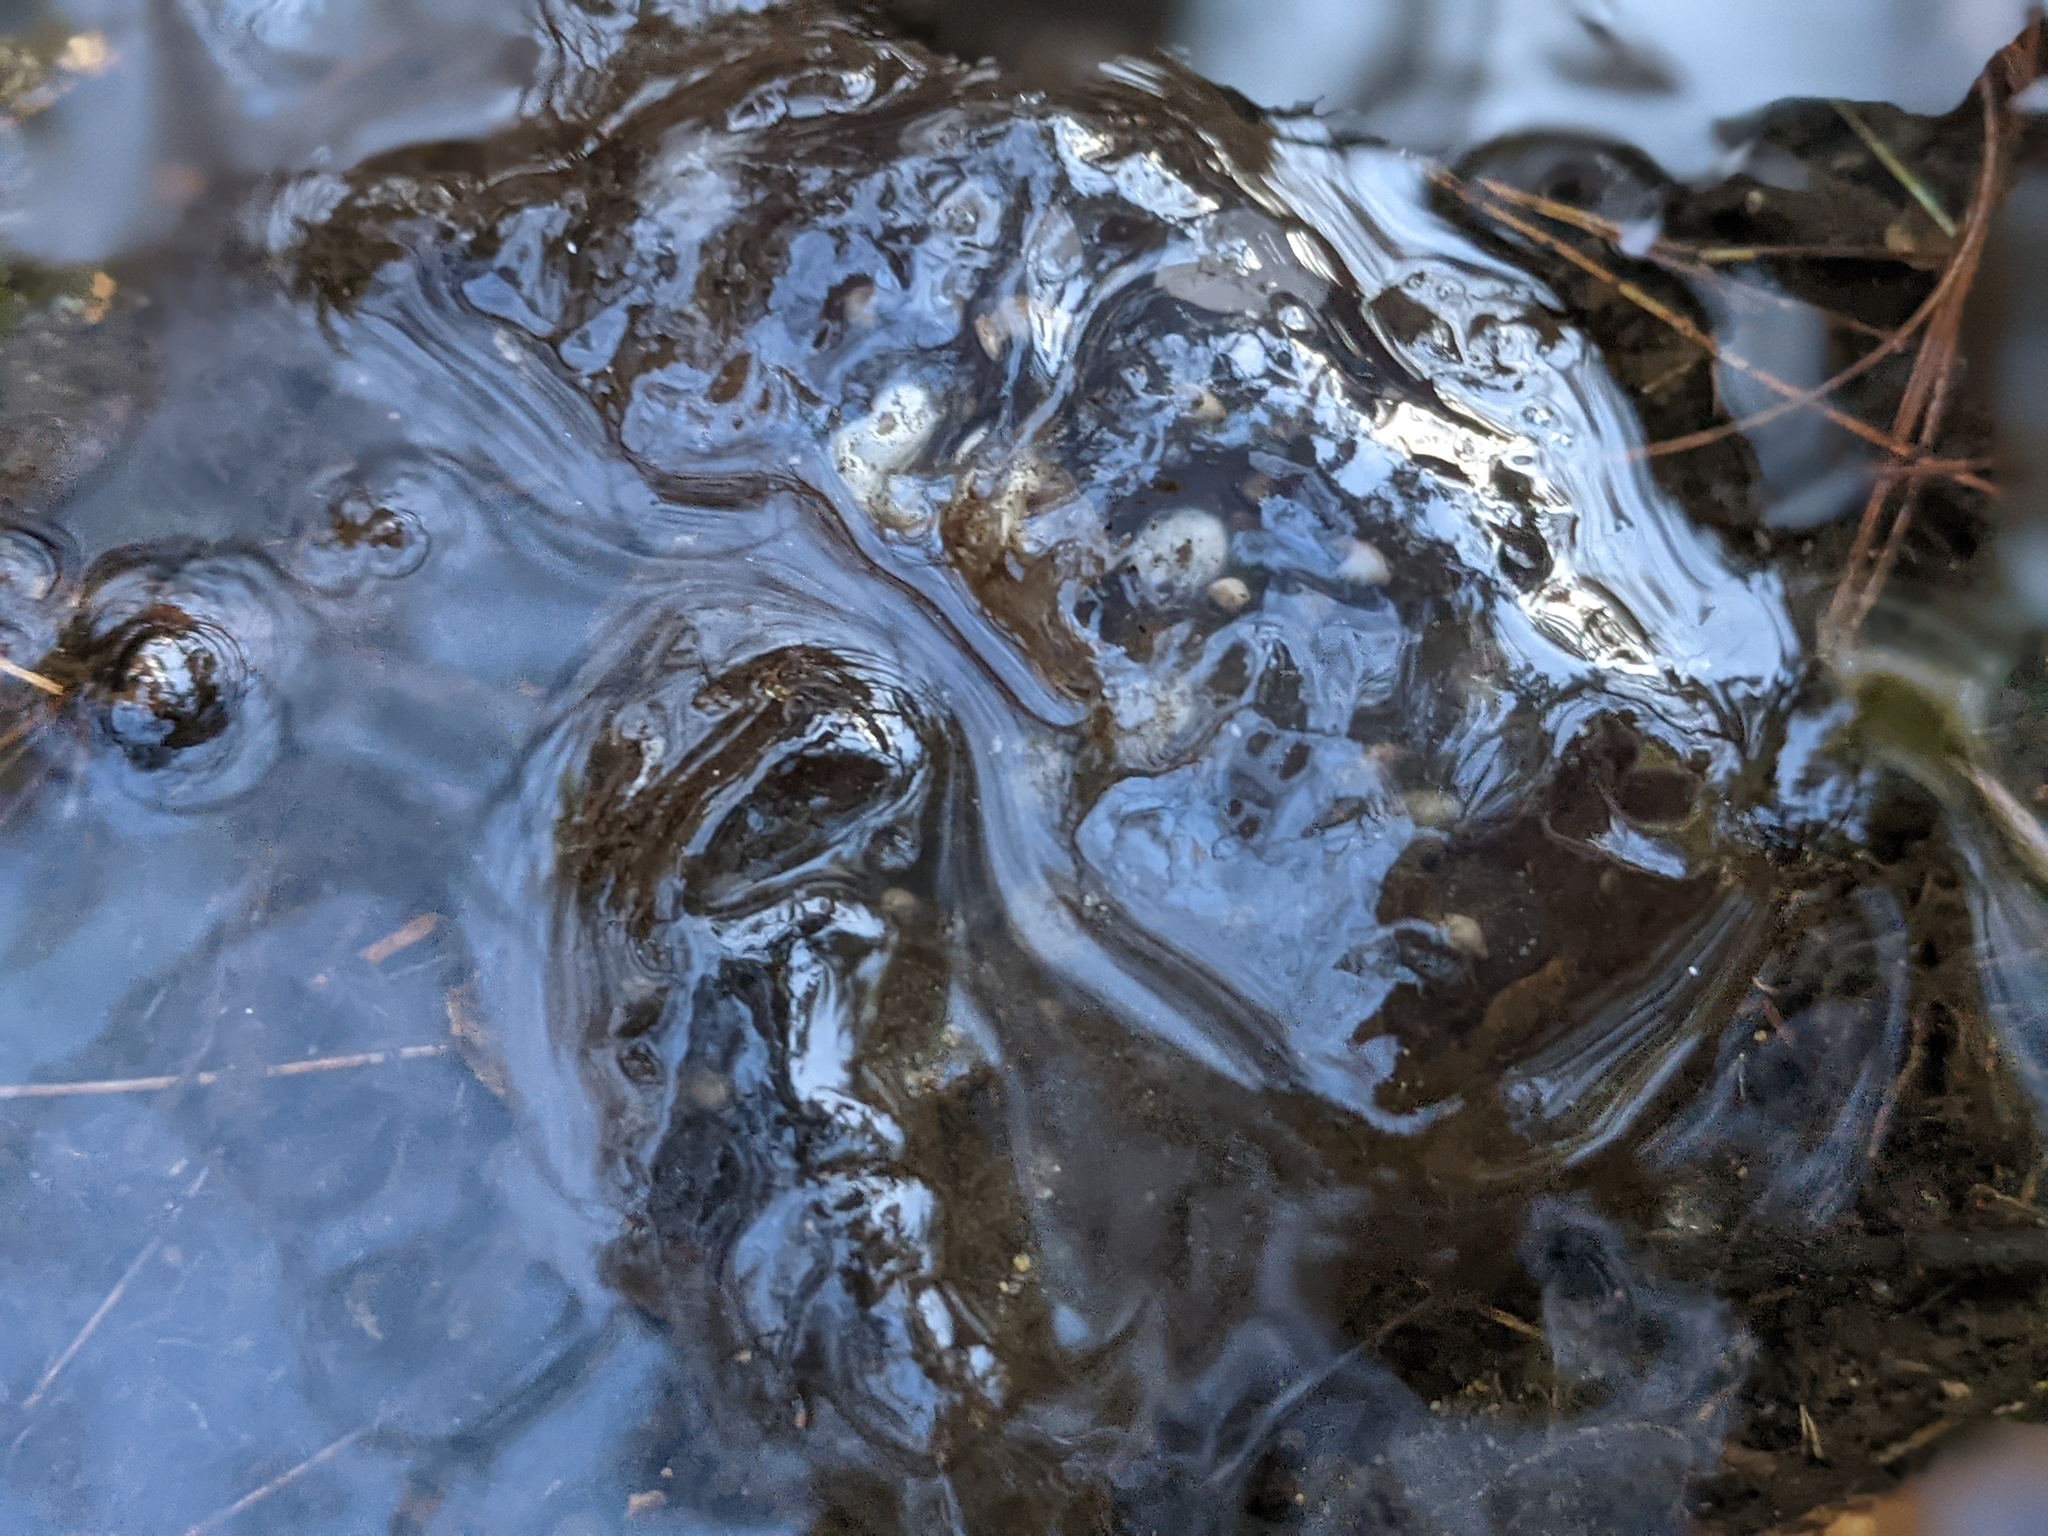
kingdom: Animalia
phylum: Chordata
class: Amphibia
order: Caudata
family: Ambystomatidae
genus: Ambystoma
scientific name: Ambystoma maculatum
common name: Spotted salamander
